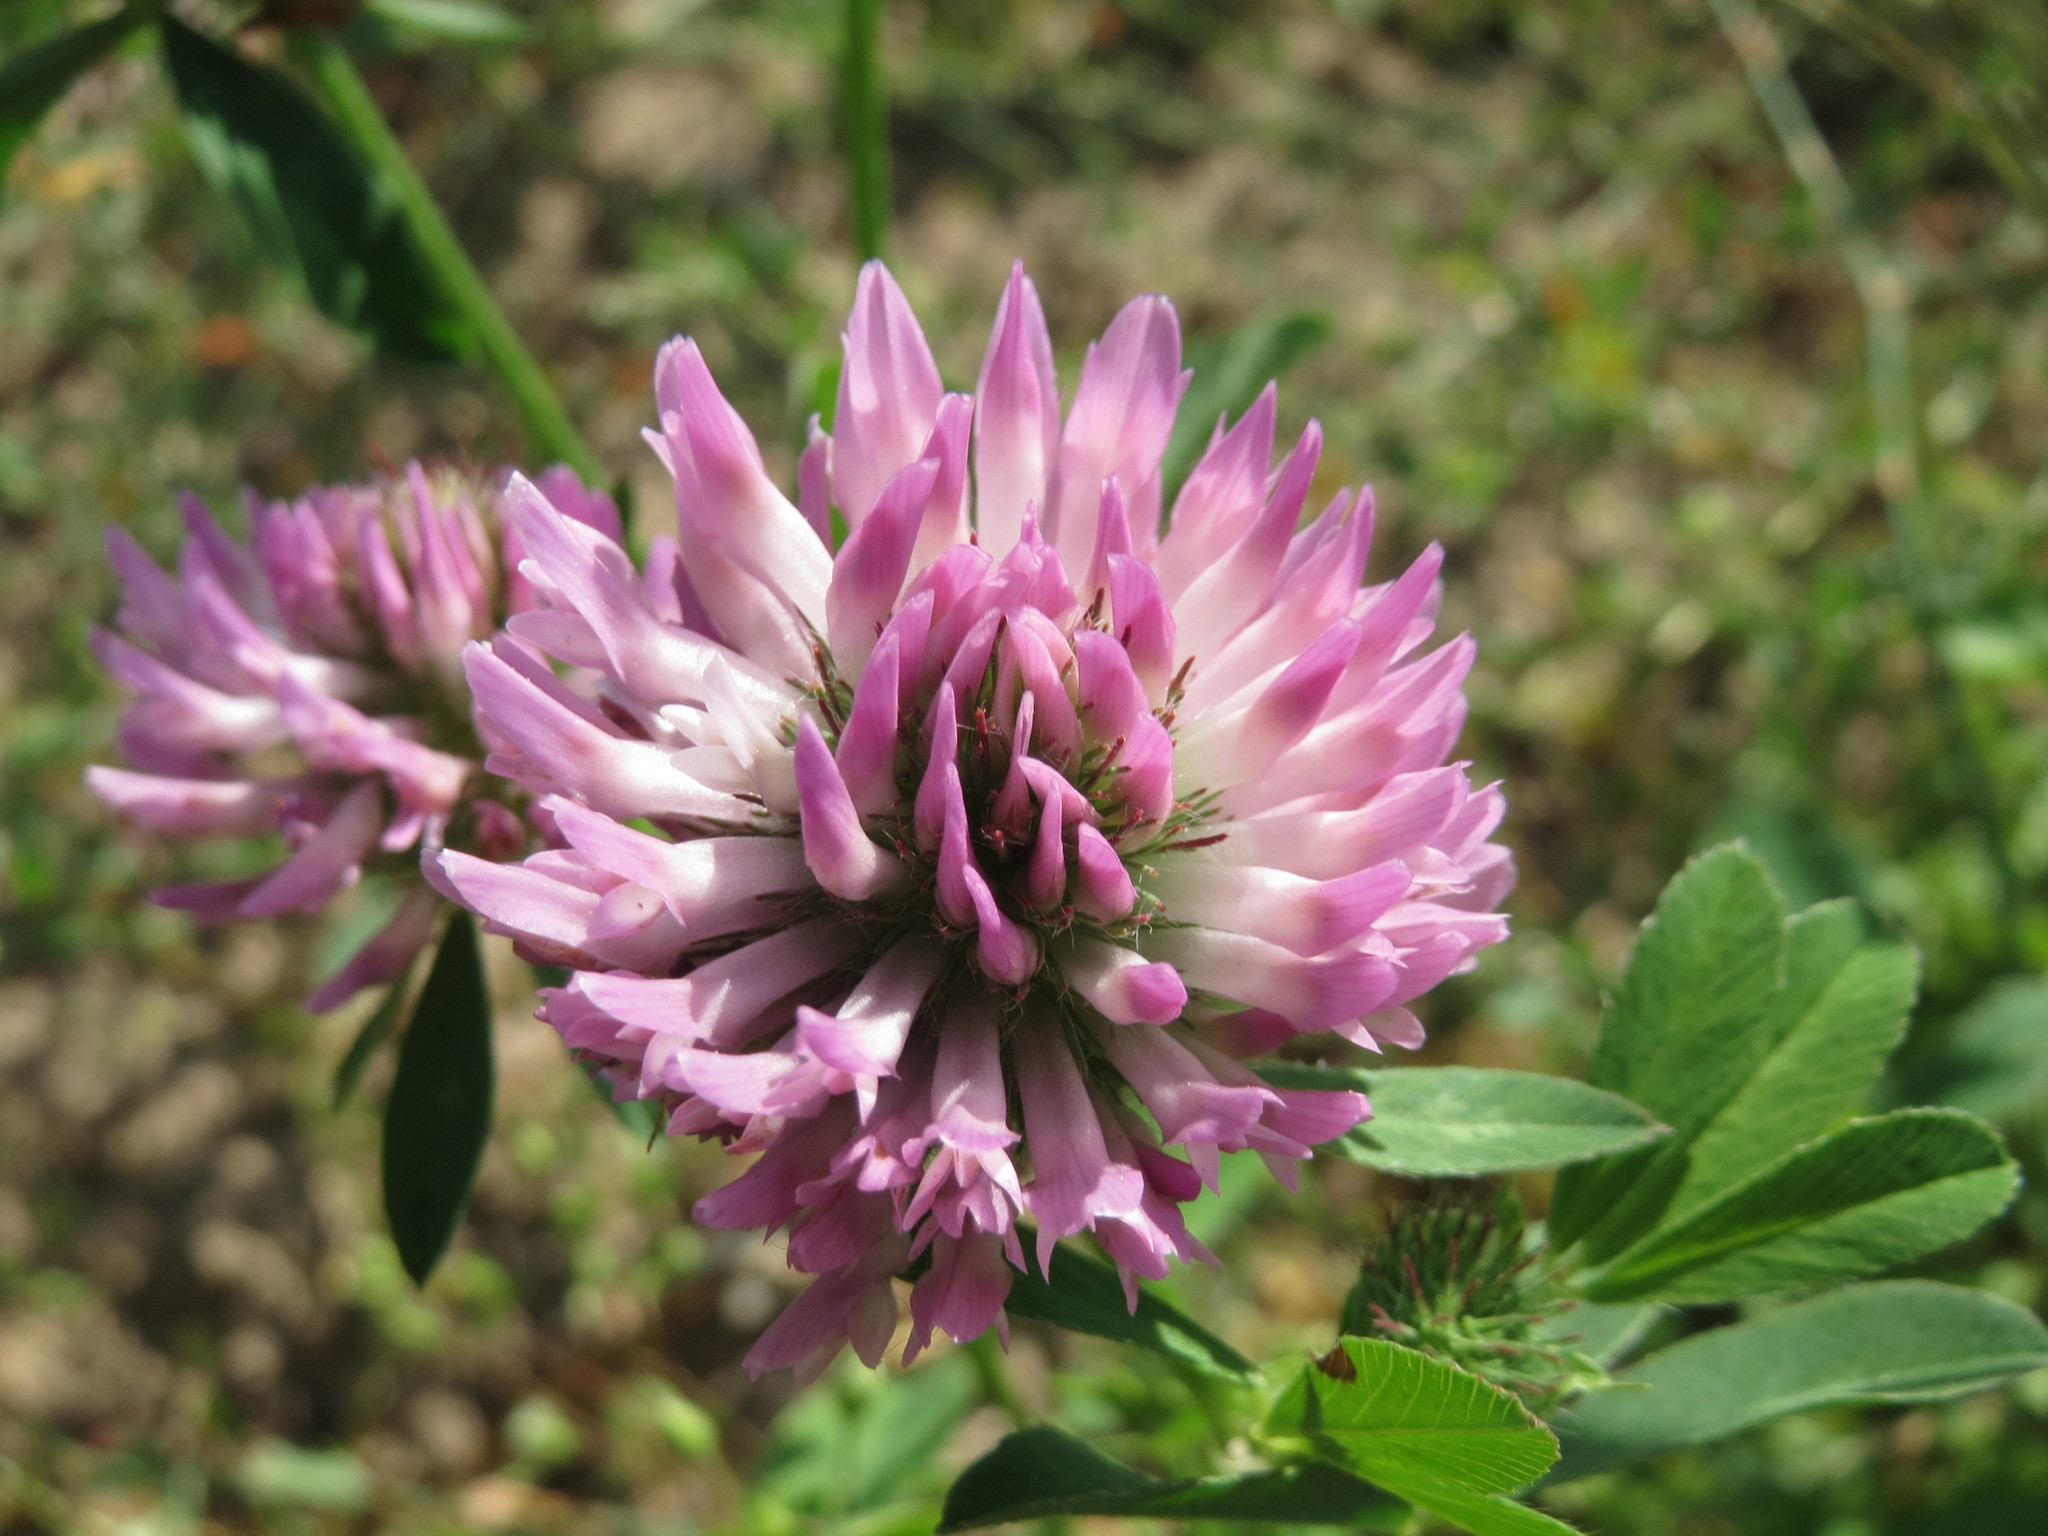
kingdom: Plantae
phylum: Tracheophyta
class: Magnoliopsida
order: Fabales
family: Fabaceae
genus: Trifolium
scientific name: Trifolium pratense
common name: Red clover
